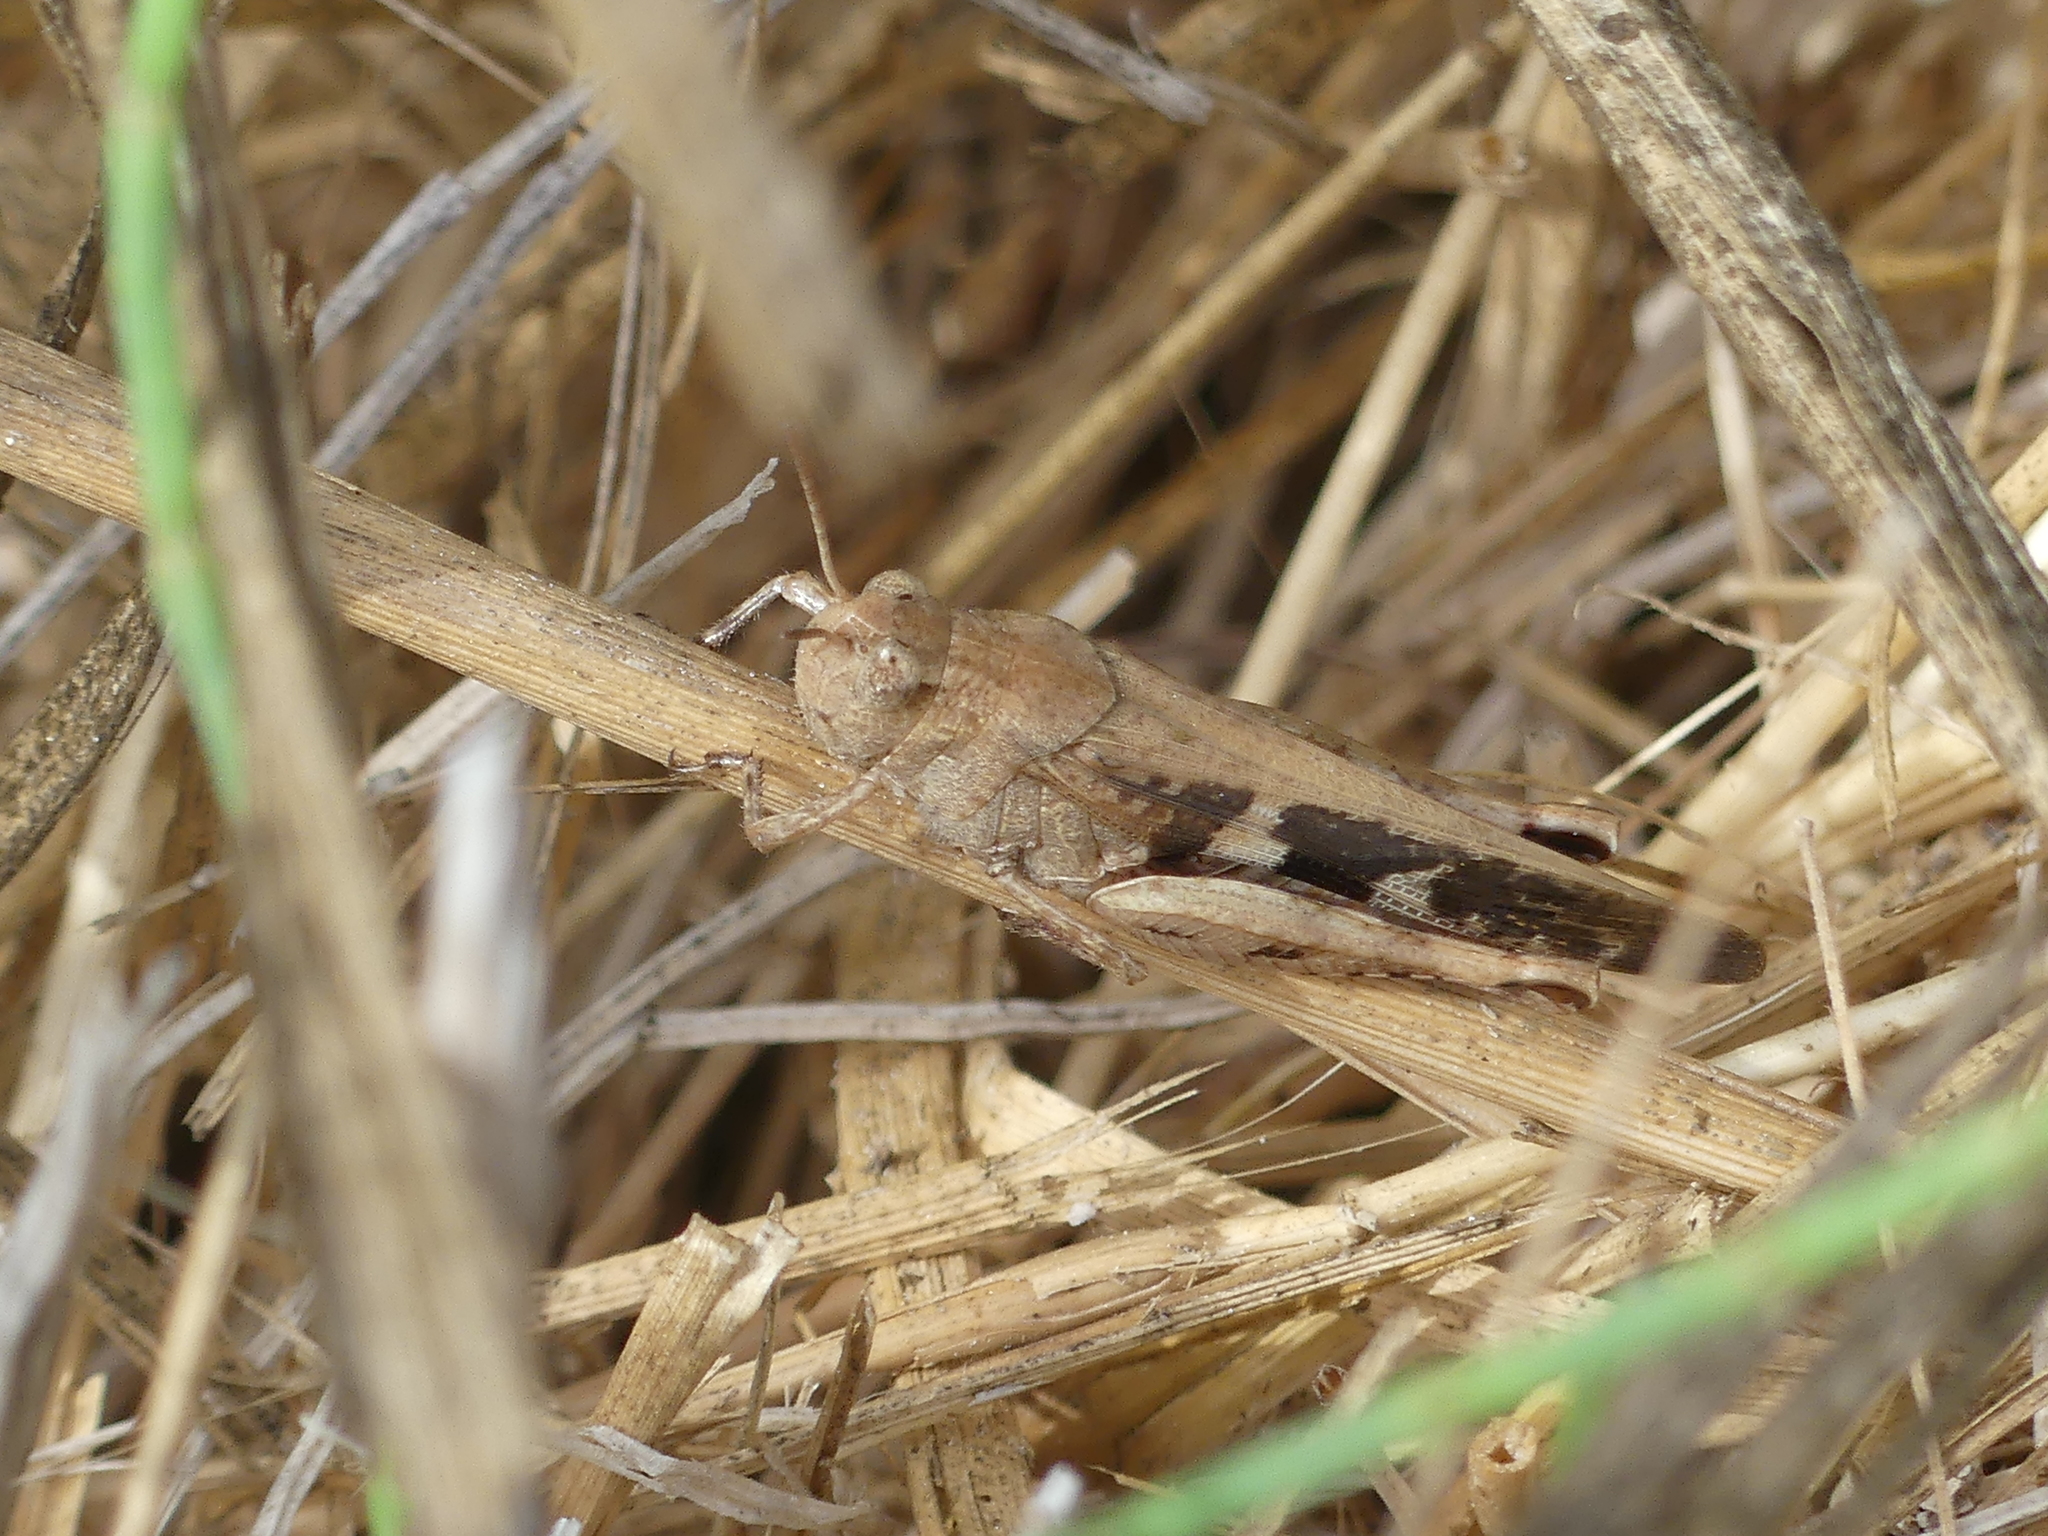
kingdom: Animalia
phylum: Arthropoda
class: Insecta
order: Orthoptera
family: Acrididae
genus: Aiolopus
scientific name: Aiolopus strepens
